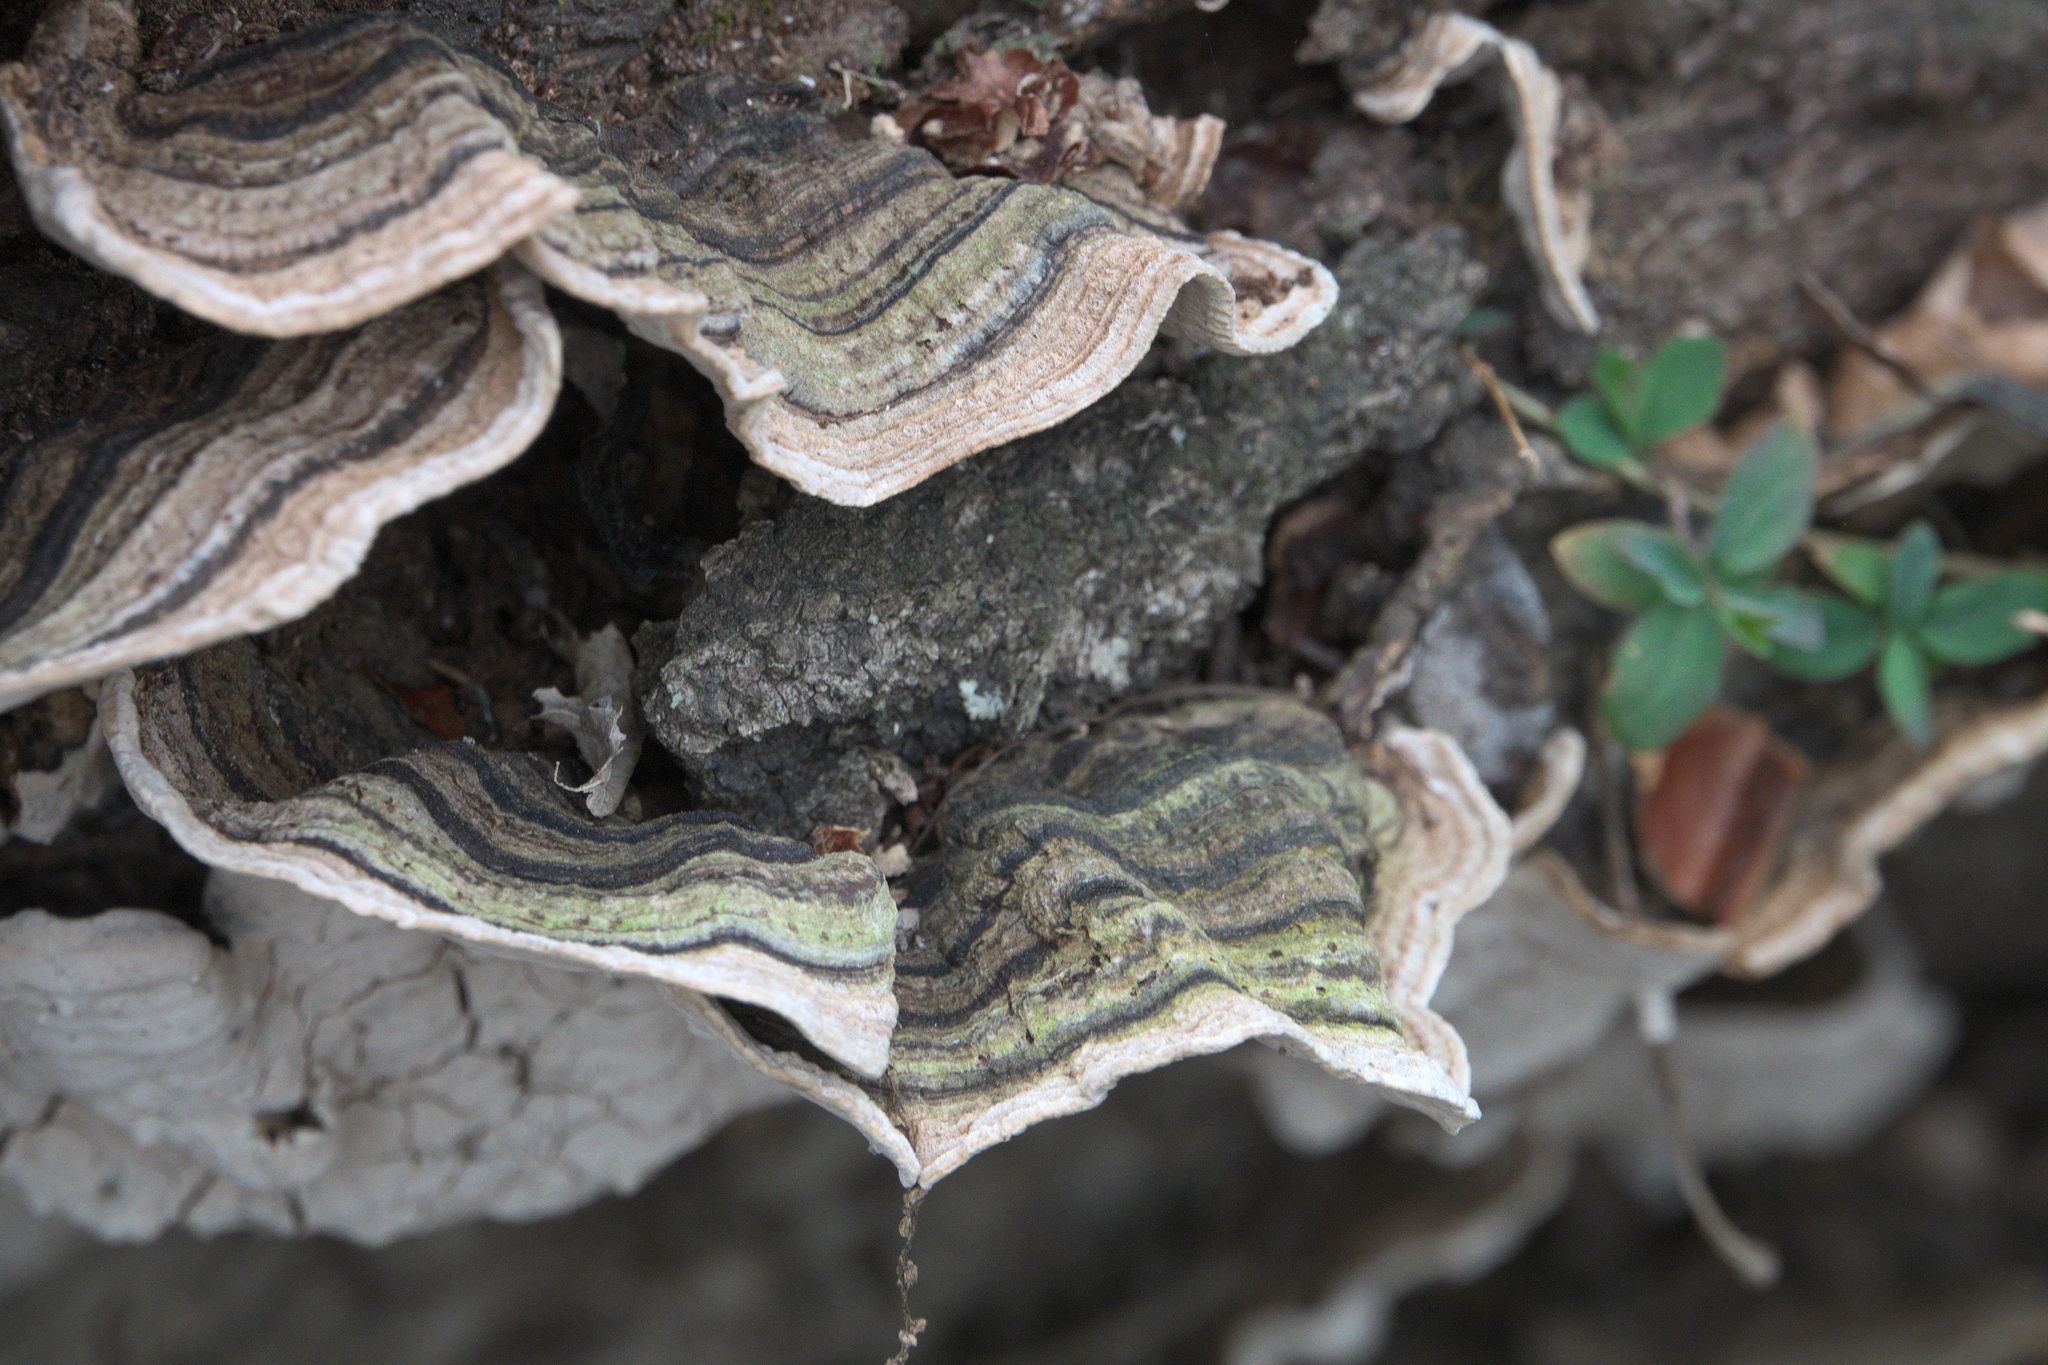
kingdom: Fungi
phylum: Basidiomycota
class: Agaricomycetes
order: Russulales
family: Stereaceae
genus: Xylobolus
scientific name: Xylobolus subpileatus
